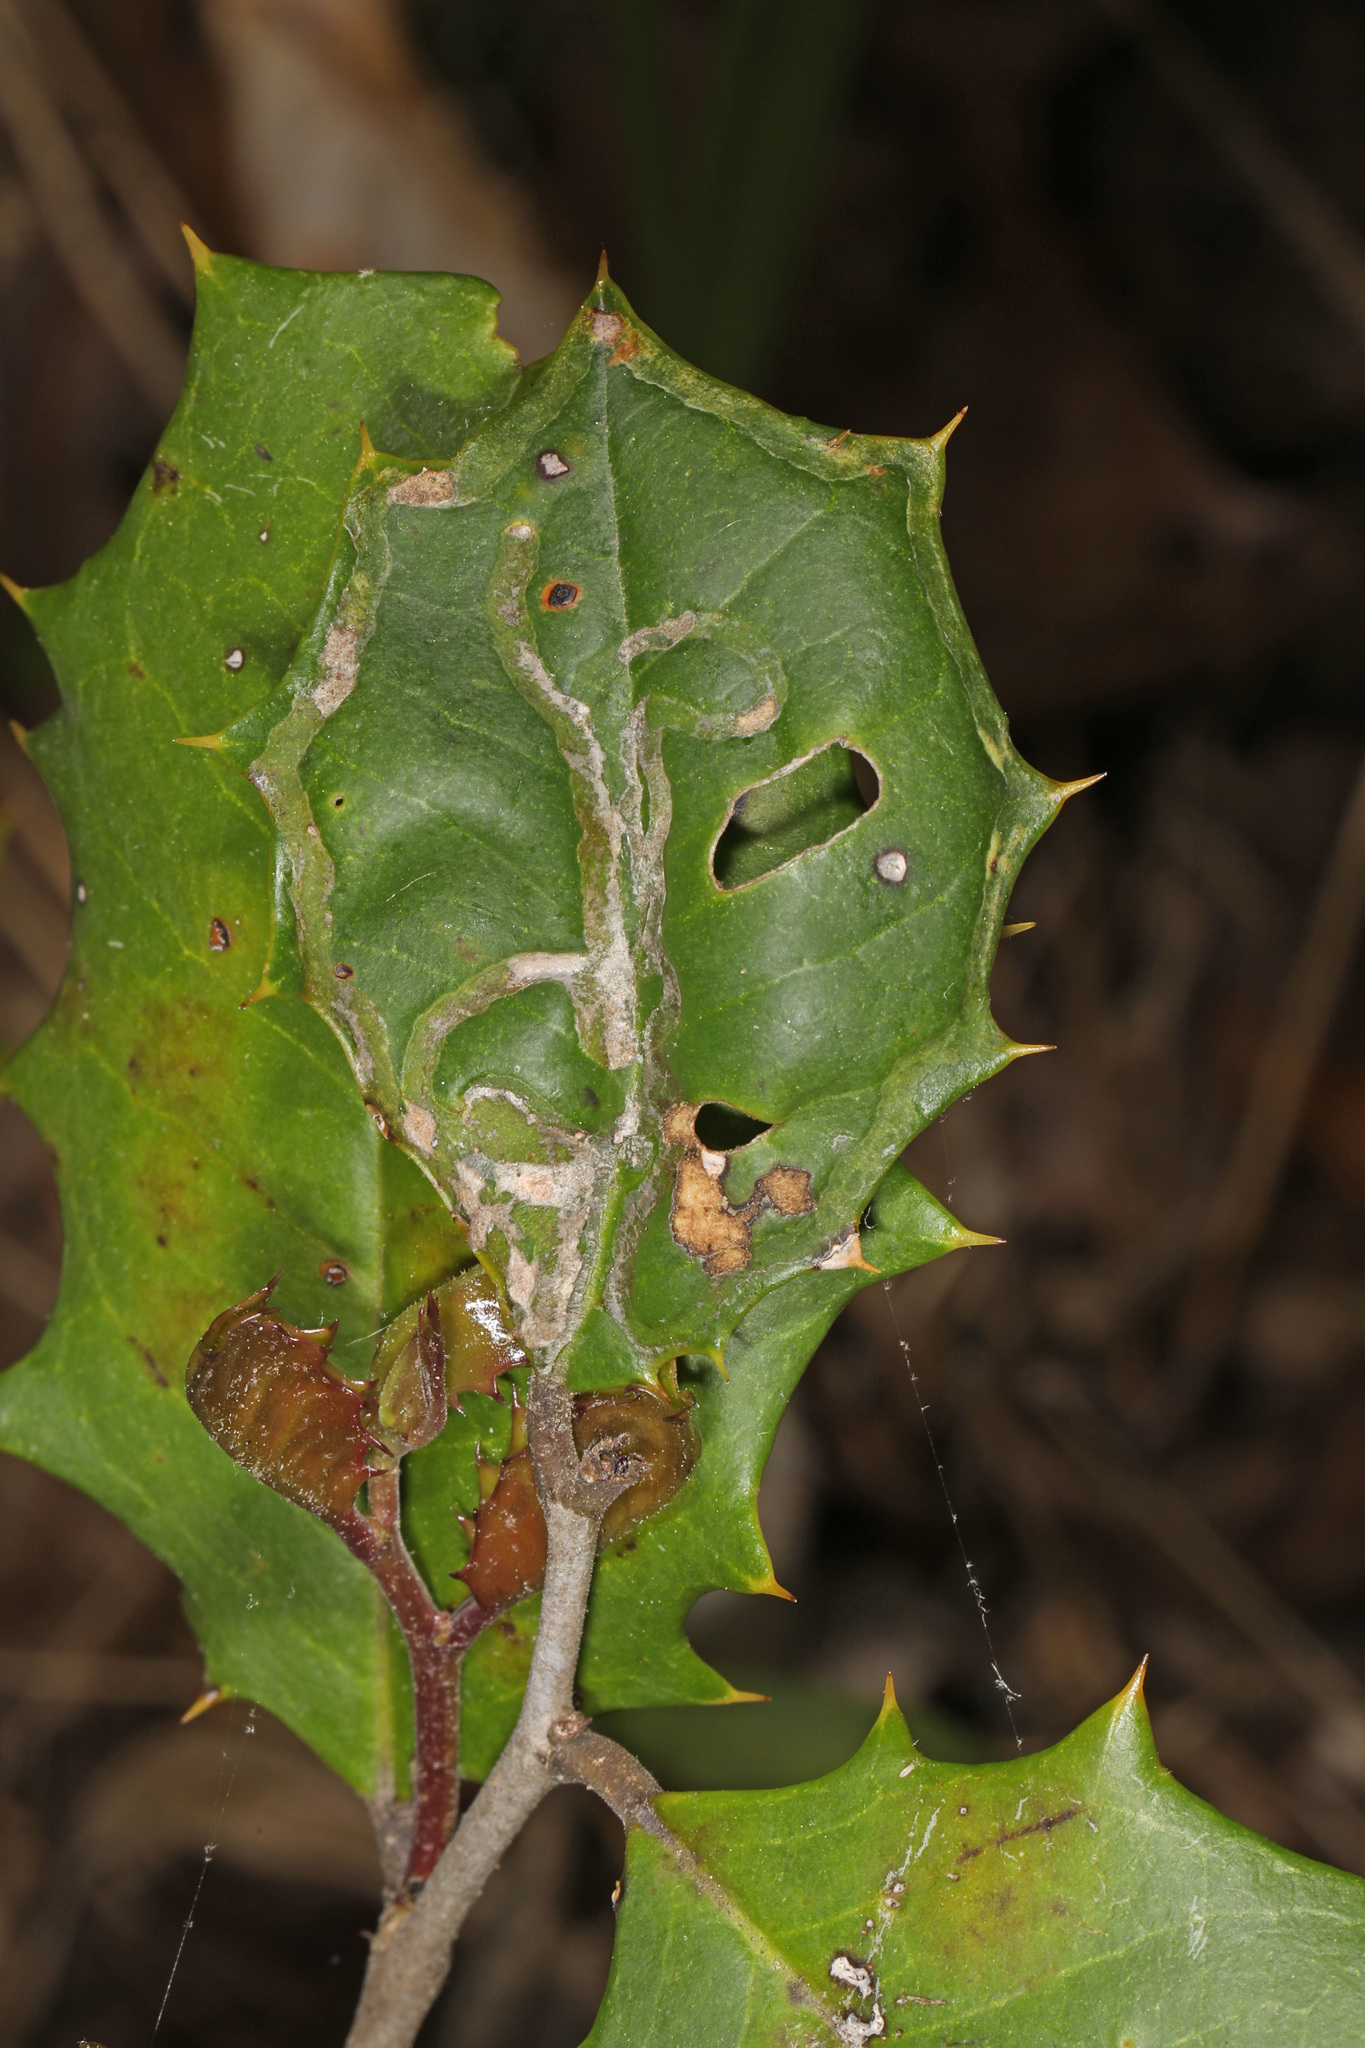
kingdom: Animalia
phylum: Arthropoda
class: Insecta
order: Diptera
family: Agromyzidae
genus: Phytomyza
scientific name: Phytomyza opacae
